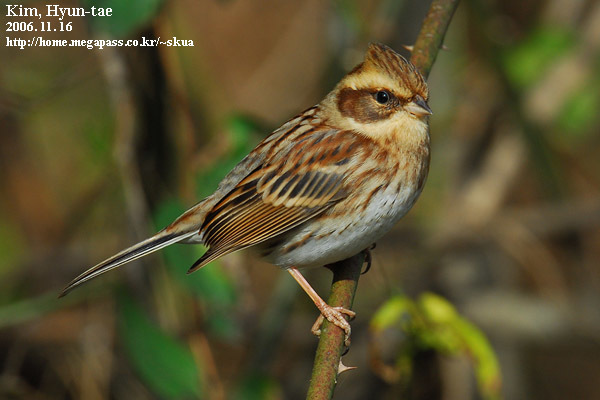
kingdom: Animalia
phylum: Chordata
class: Aves
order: Passeriformes
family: Emberizidae
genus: Emberiza
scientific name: Emberiza elegans
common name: Yellow-throated bunting
